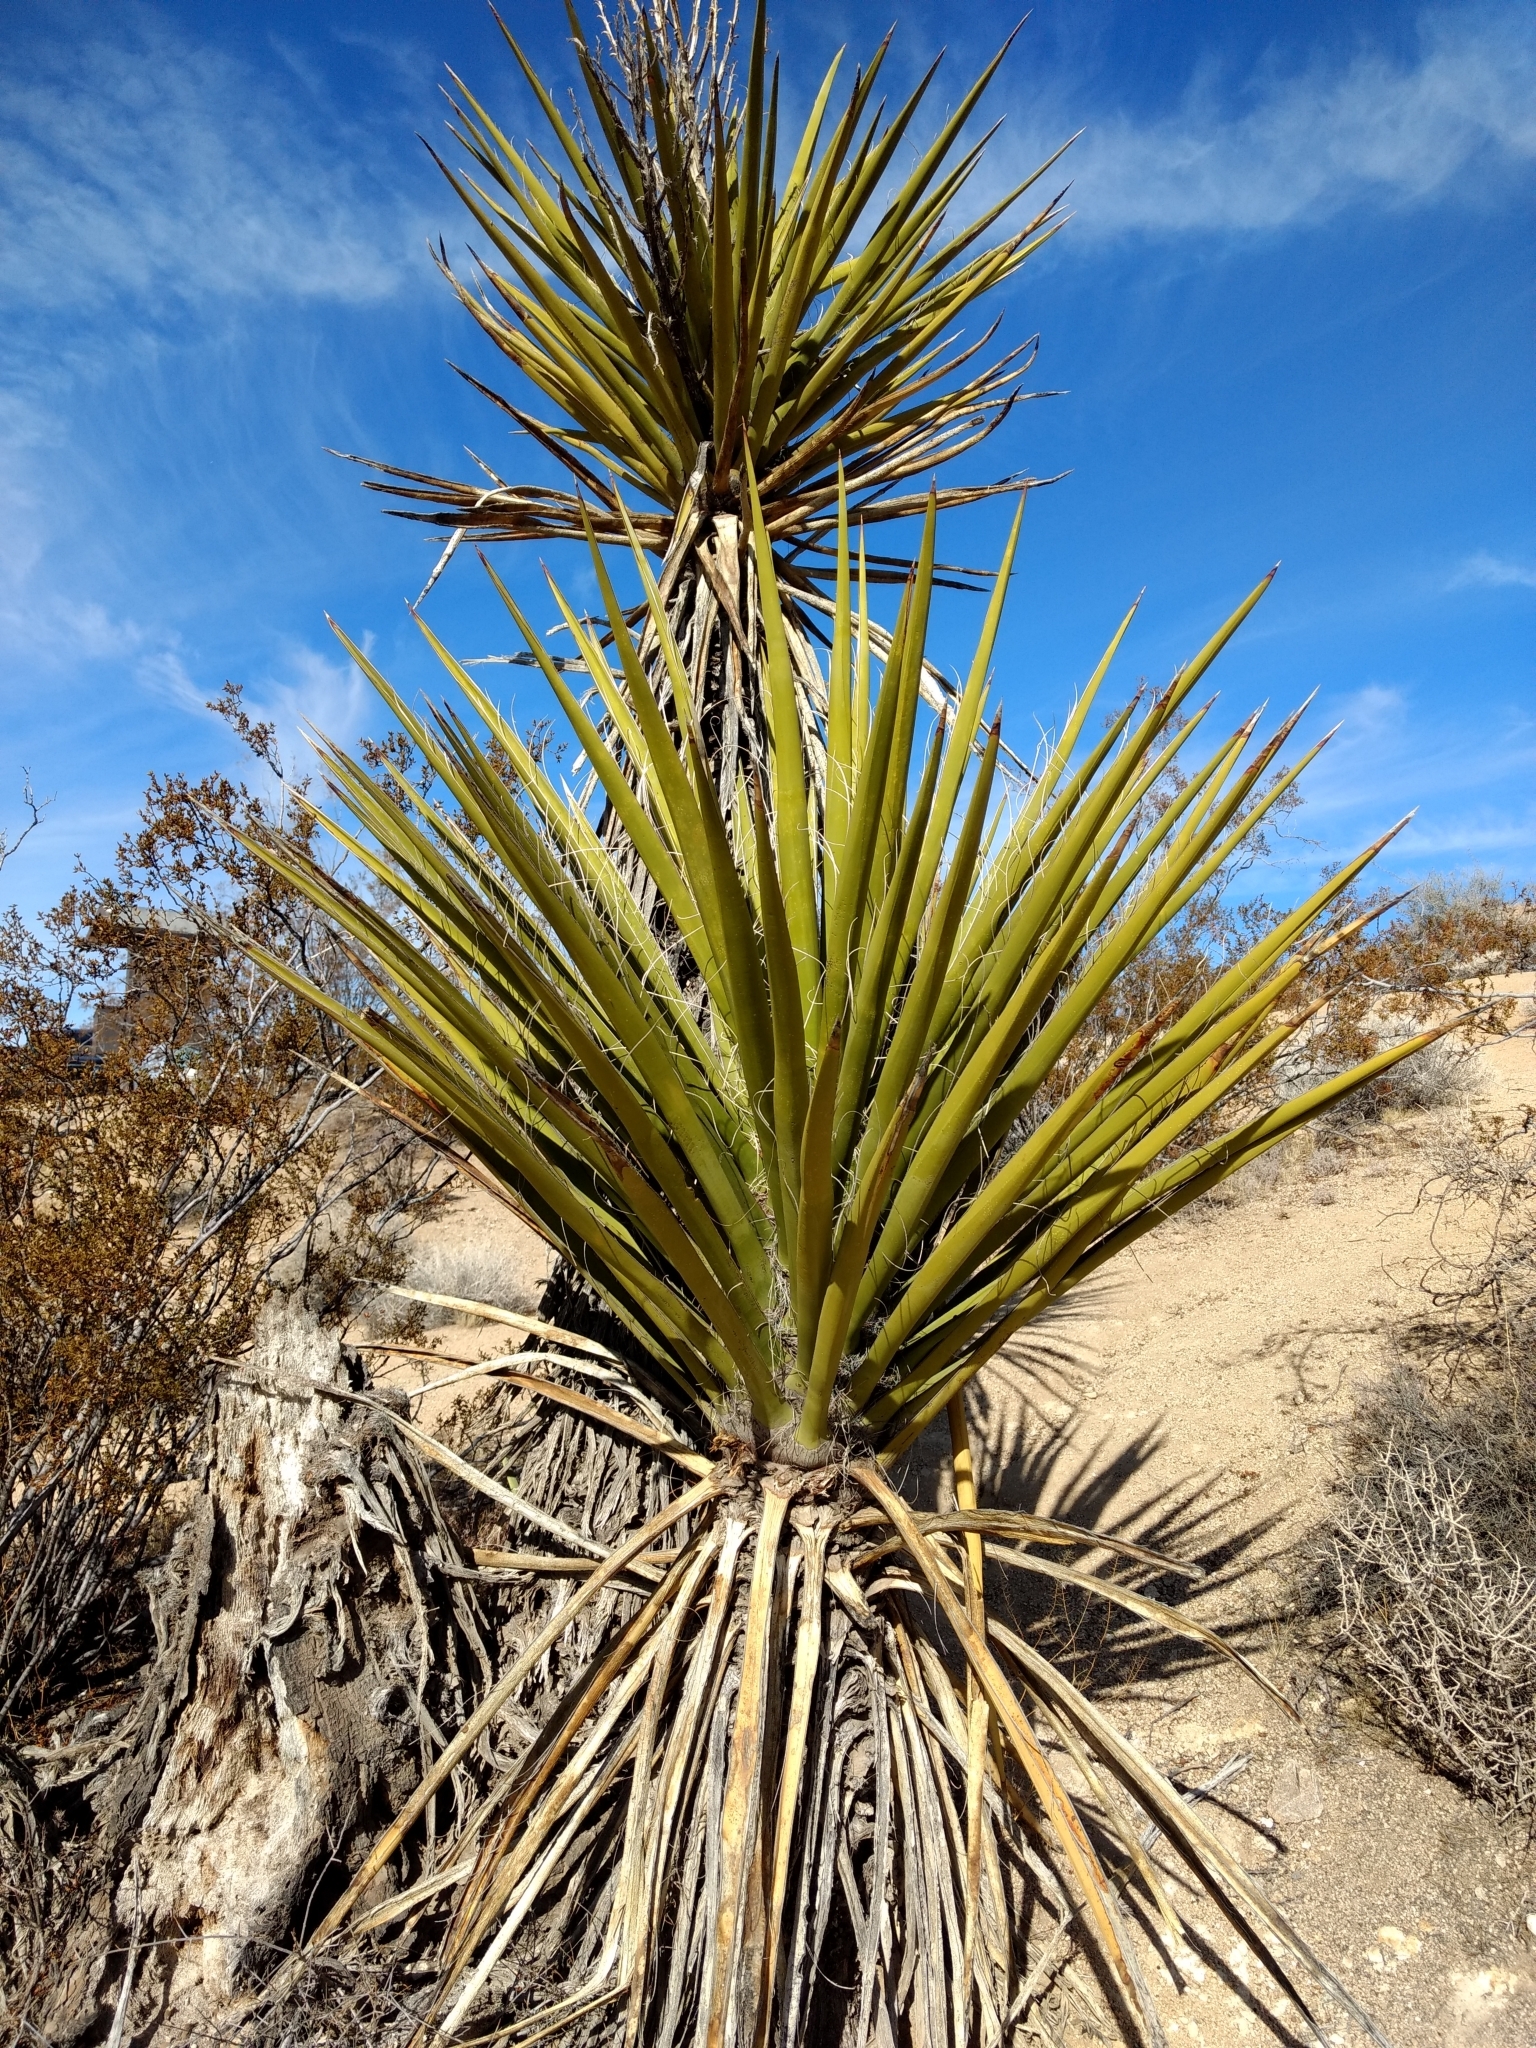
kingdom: Plantae
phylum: Tracheophyta
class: Liliopsida
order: Asparagales
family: Asparagaceae
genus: Yucca
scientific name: Yucca schidigera
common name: Mojave yucca
